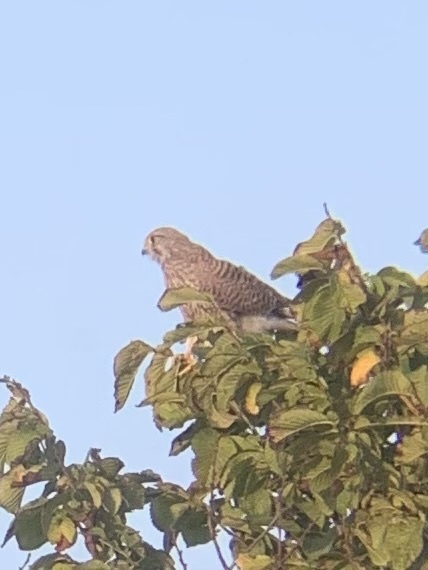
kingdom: Animalia
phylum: Chordata
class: Aves
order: Falconiformes
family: Falconidae
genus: Falco
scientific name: Falco tinnunculus
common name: Common kestrel
